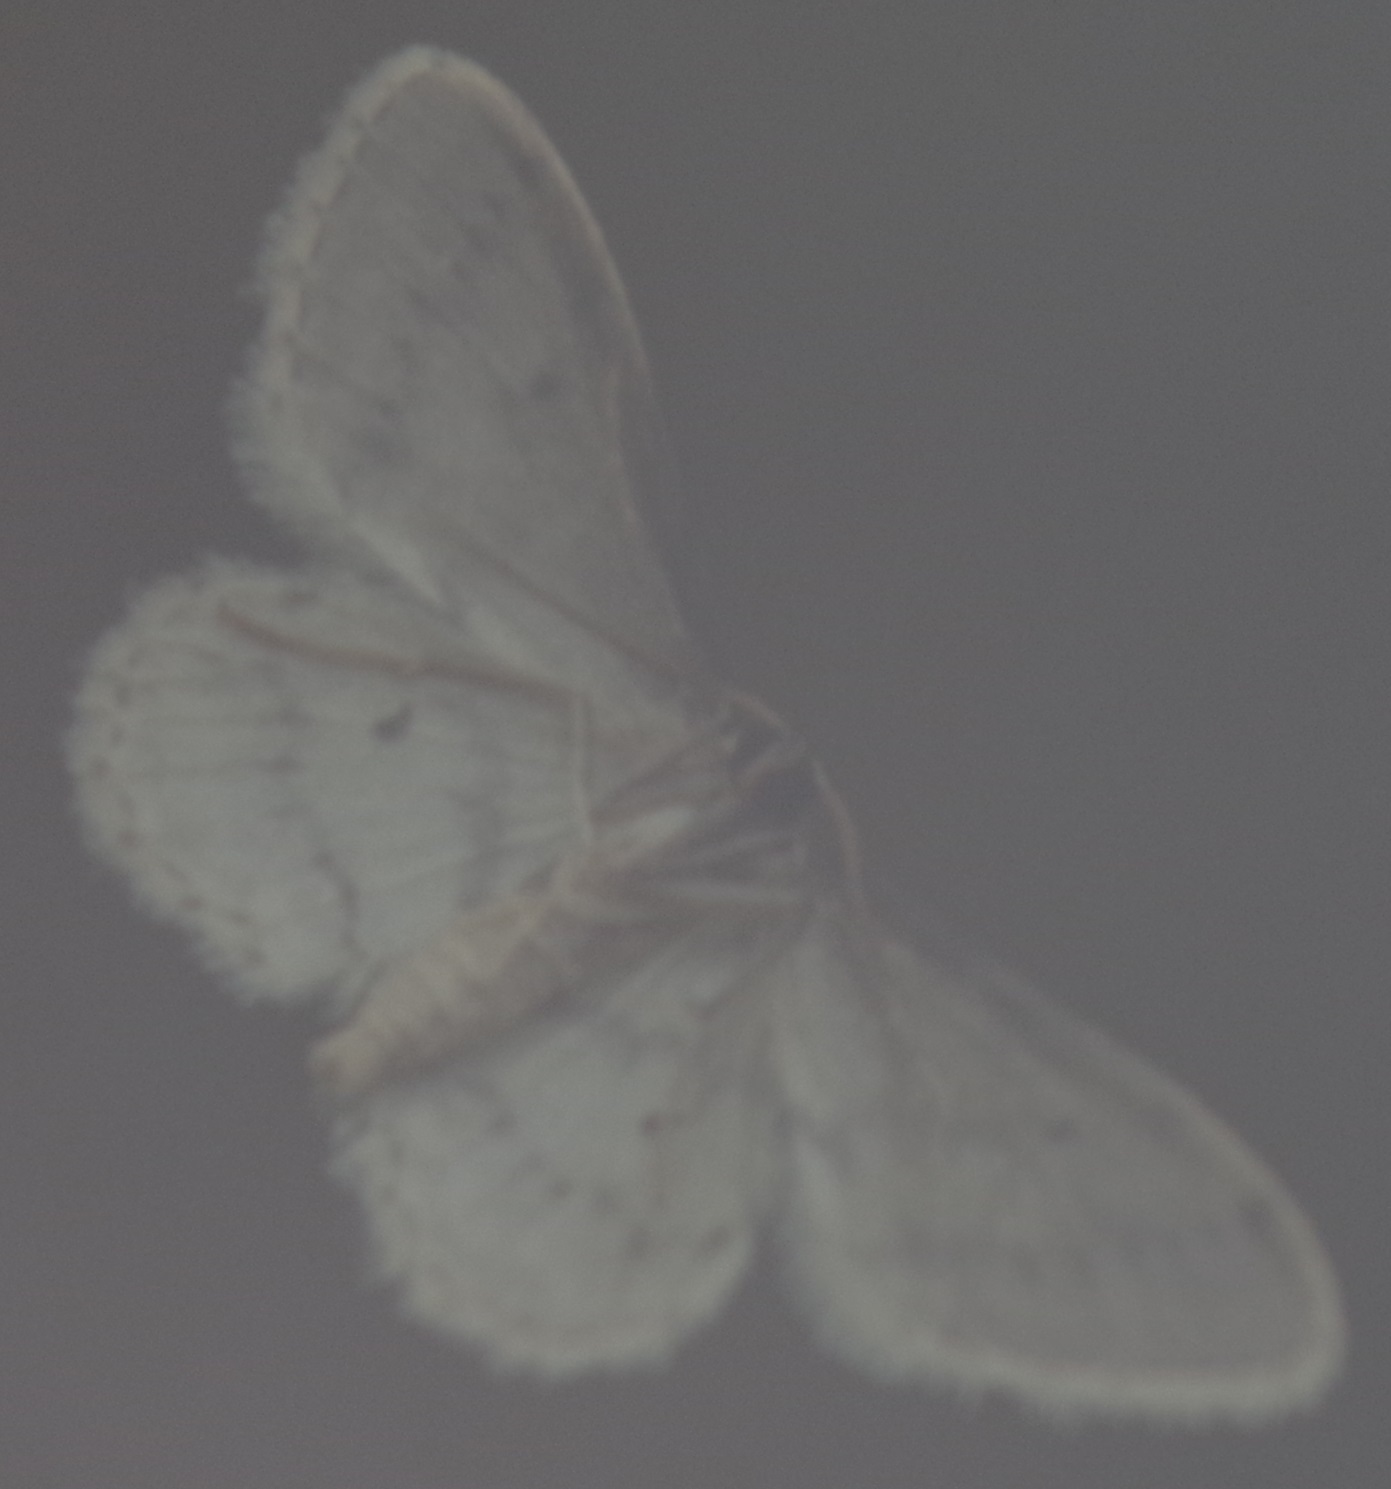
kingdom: Animalia
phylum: Arthropoda
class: Insecta
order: Lepidoptera
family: Geometridae
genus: Idaea
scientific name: Idaea seriata
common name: Small dusty wave
